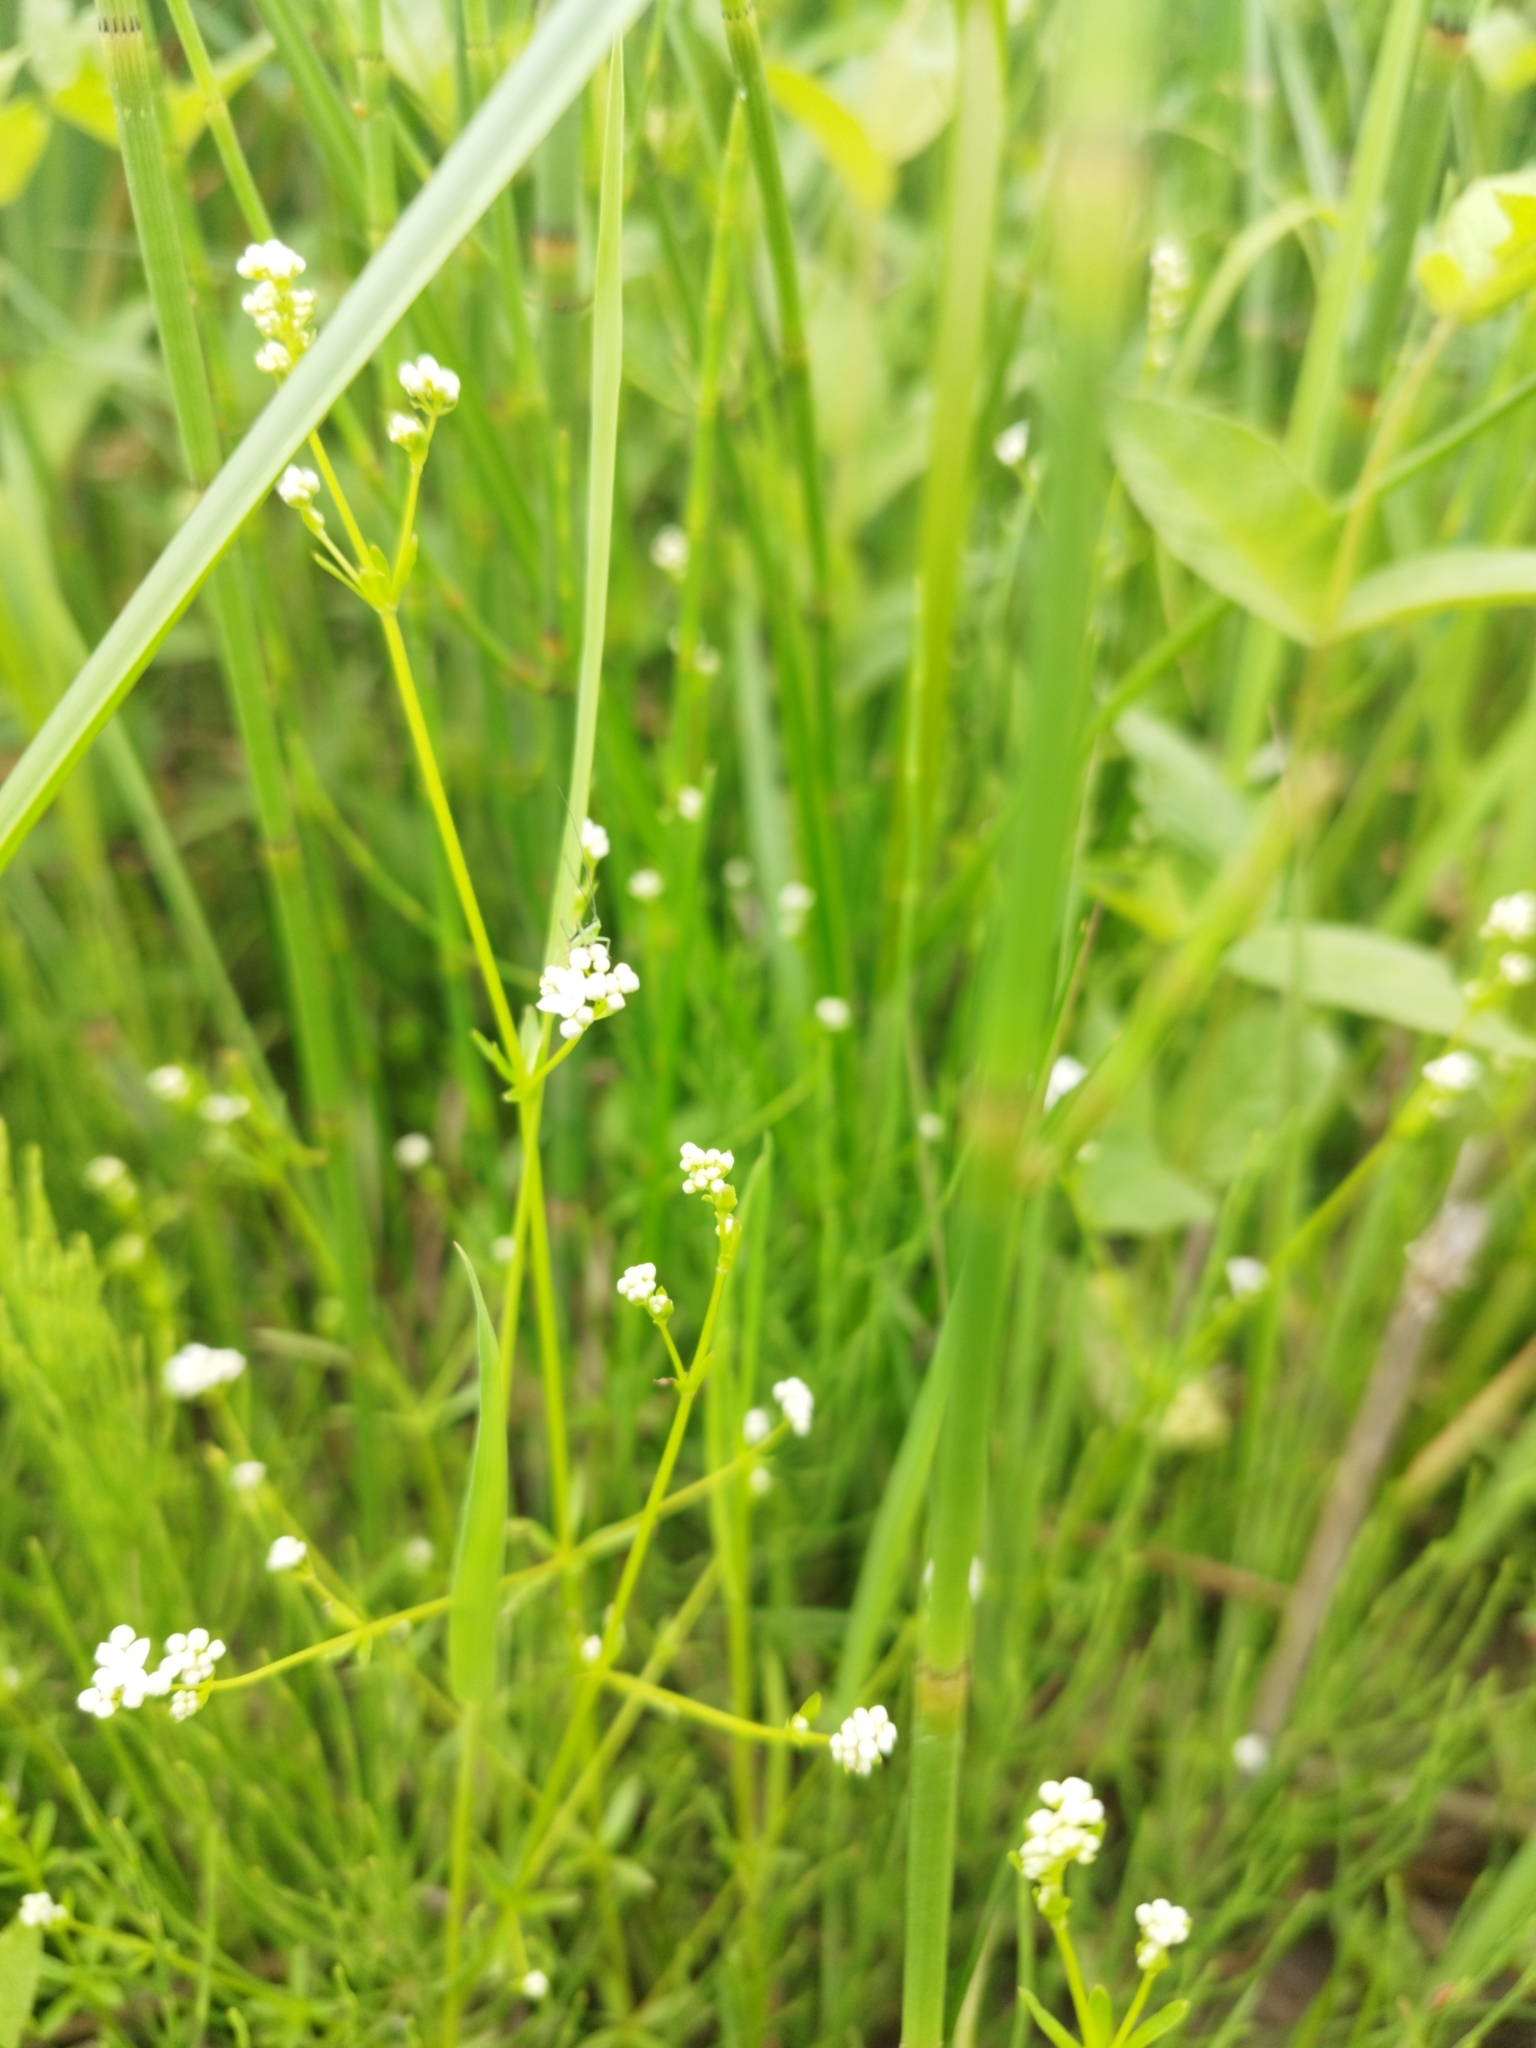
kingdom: Plantae
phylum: Tracheophyta
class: Magnoliopsida
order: Gentianales
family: Rubiaceae
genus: Galium
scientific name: Galium uliginosum
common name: Fen bedstraw
